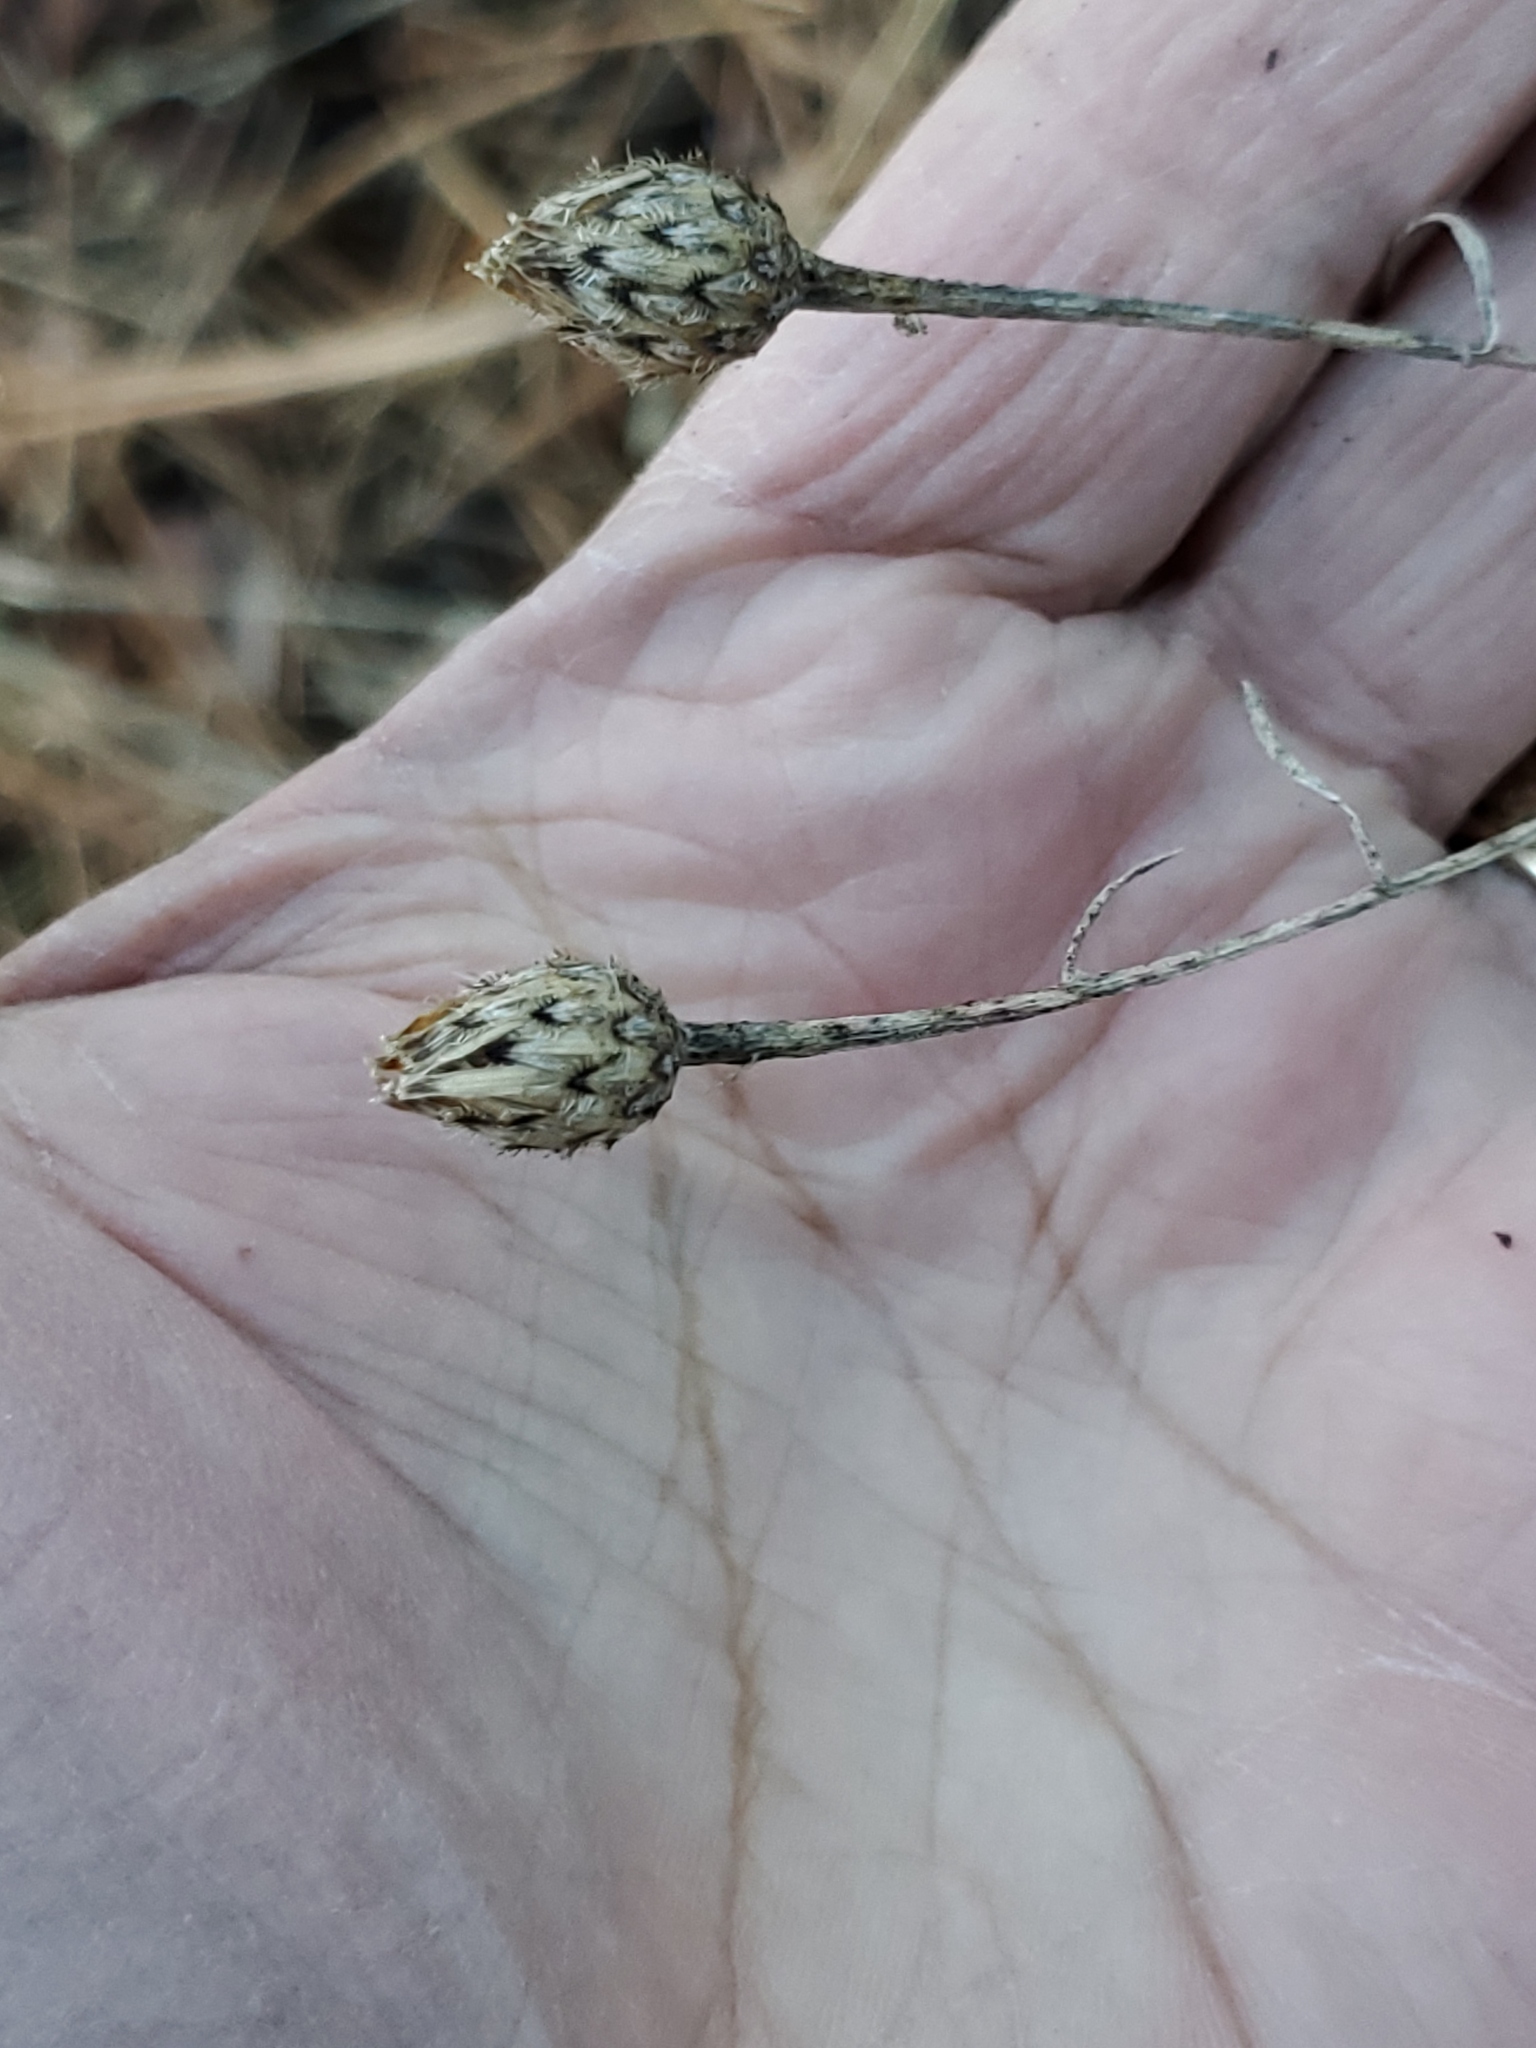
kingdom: Plantae
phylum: Tracheophyta
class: Magnoliopsida
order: Asterales
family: Asteraceae
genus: Centaurea
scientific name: Centaurea stoebe
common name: Spotted knapweed
